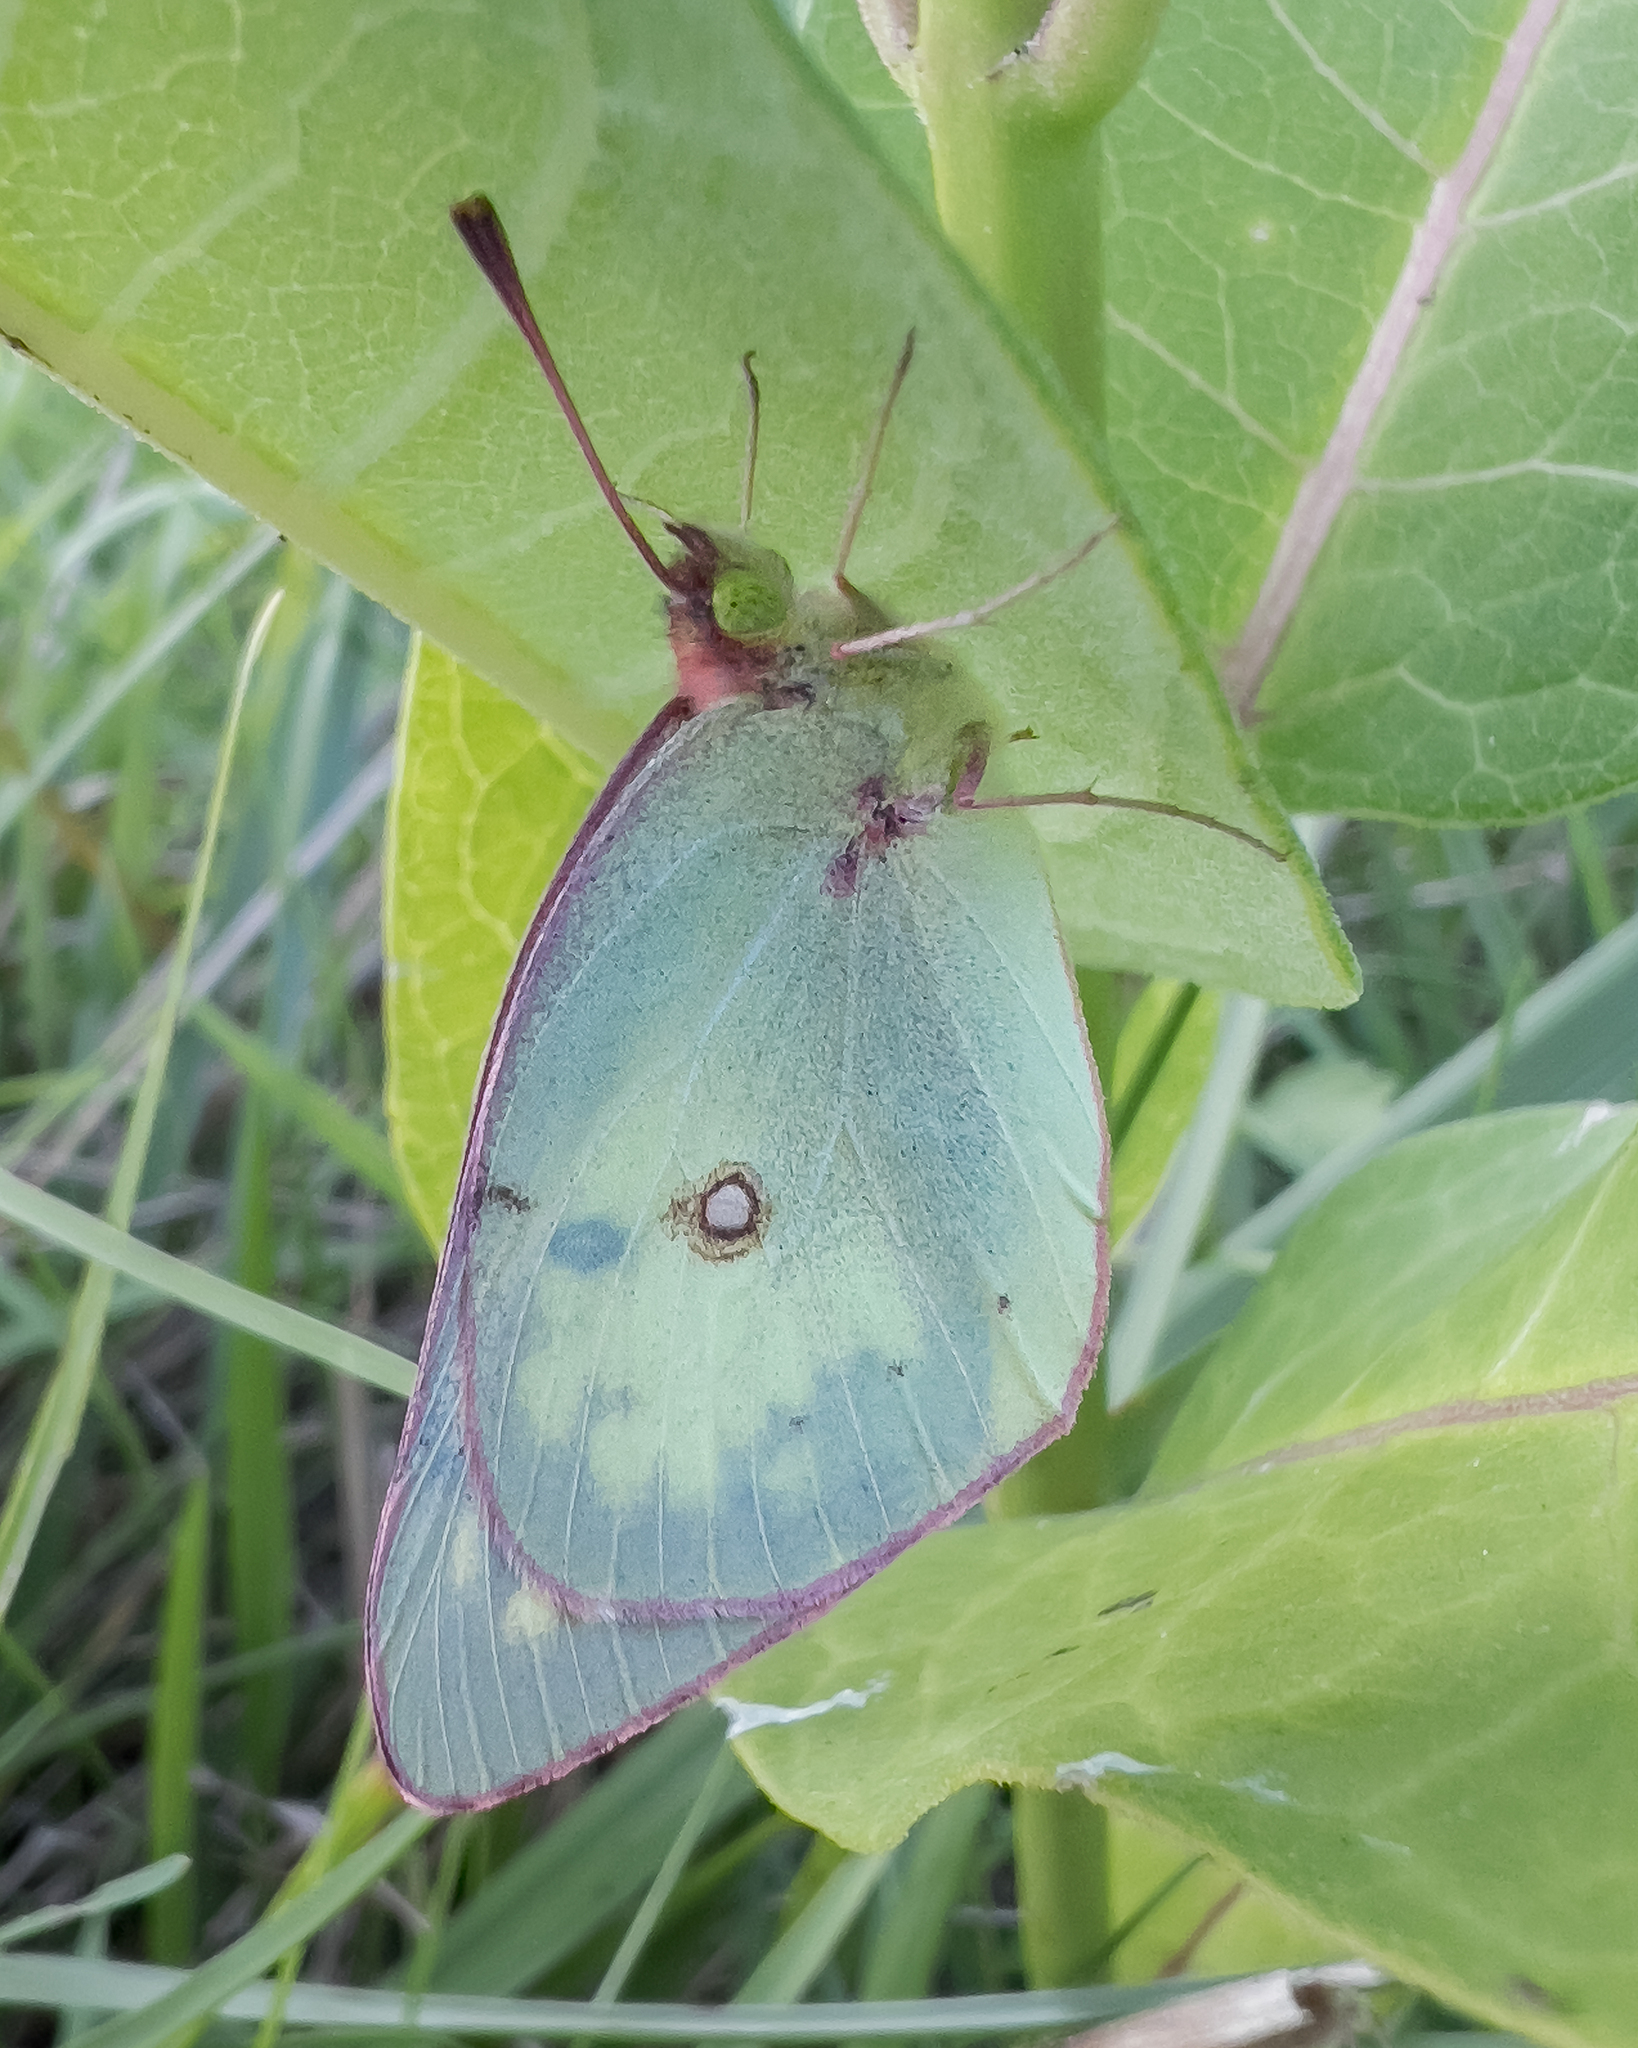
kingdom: Animalia
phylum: Arthropoda
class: Insecta
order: Lepidoptera
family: Pieridae
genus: Colias
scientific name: Colias philodice
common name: Clouded sulphur
